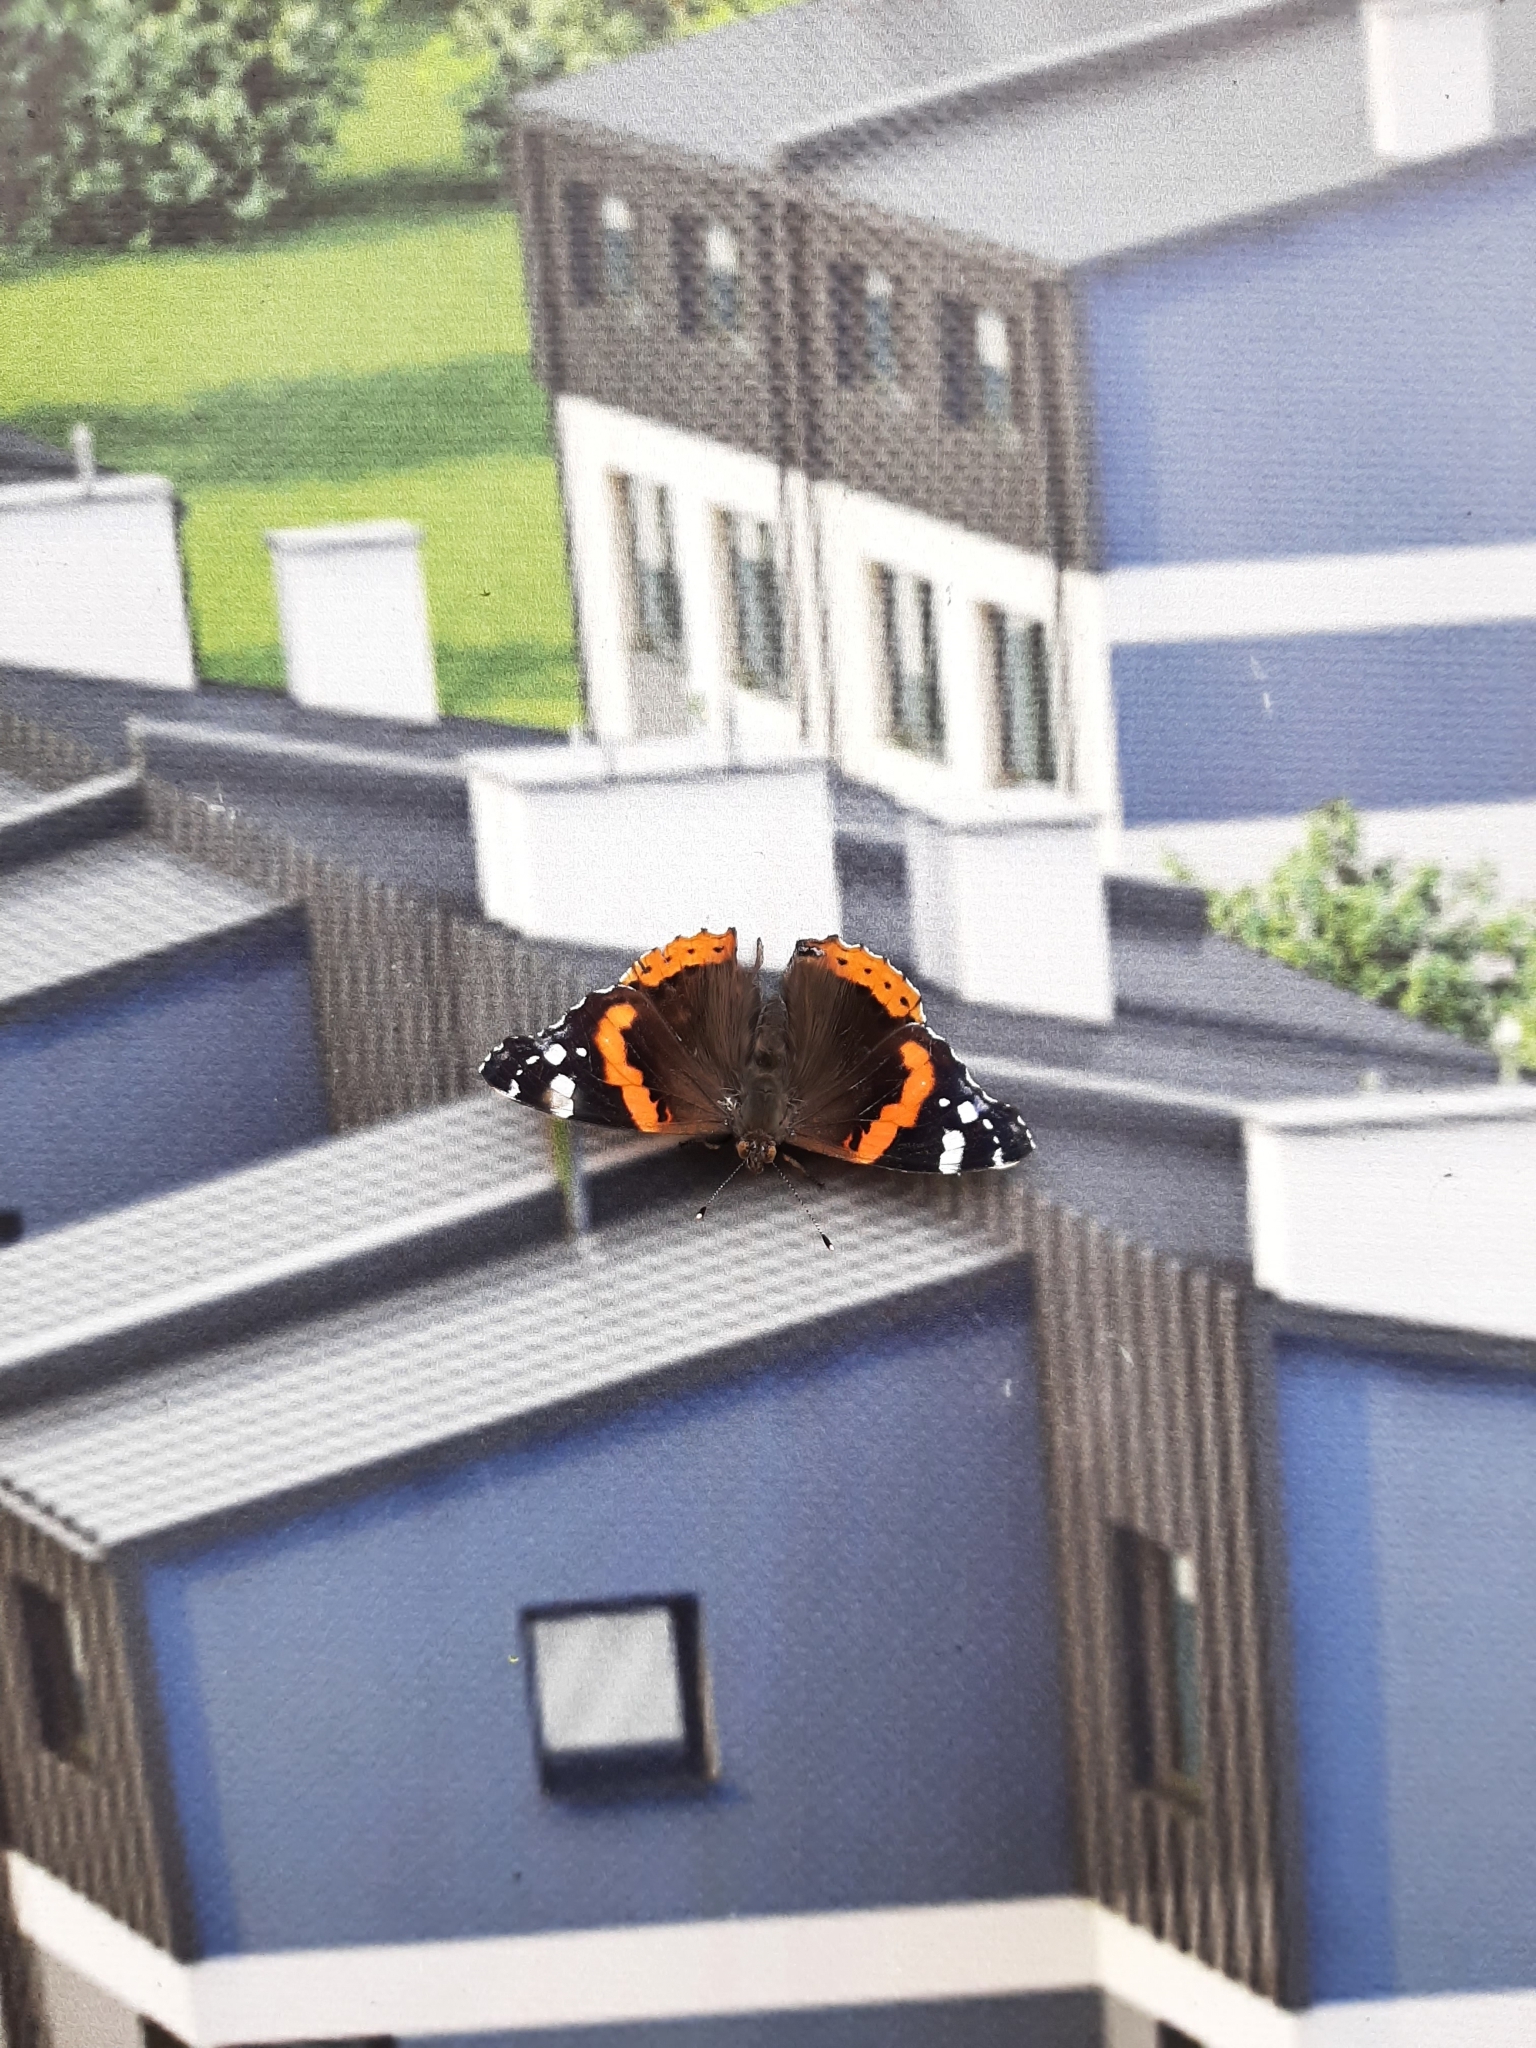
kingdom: Animalia
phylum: Arthropoda
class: Insecta
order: Lepidoptera
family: Nymphalidae
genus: Vanessa
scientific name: Vanessa atalanta
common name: Red admiral
